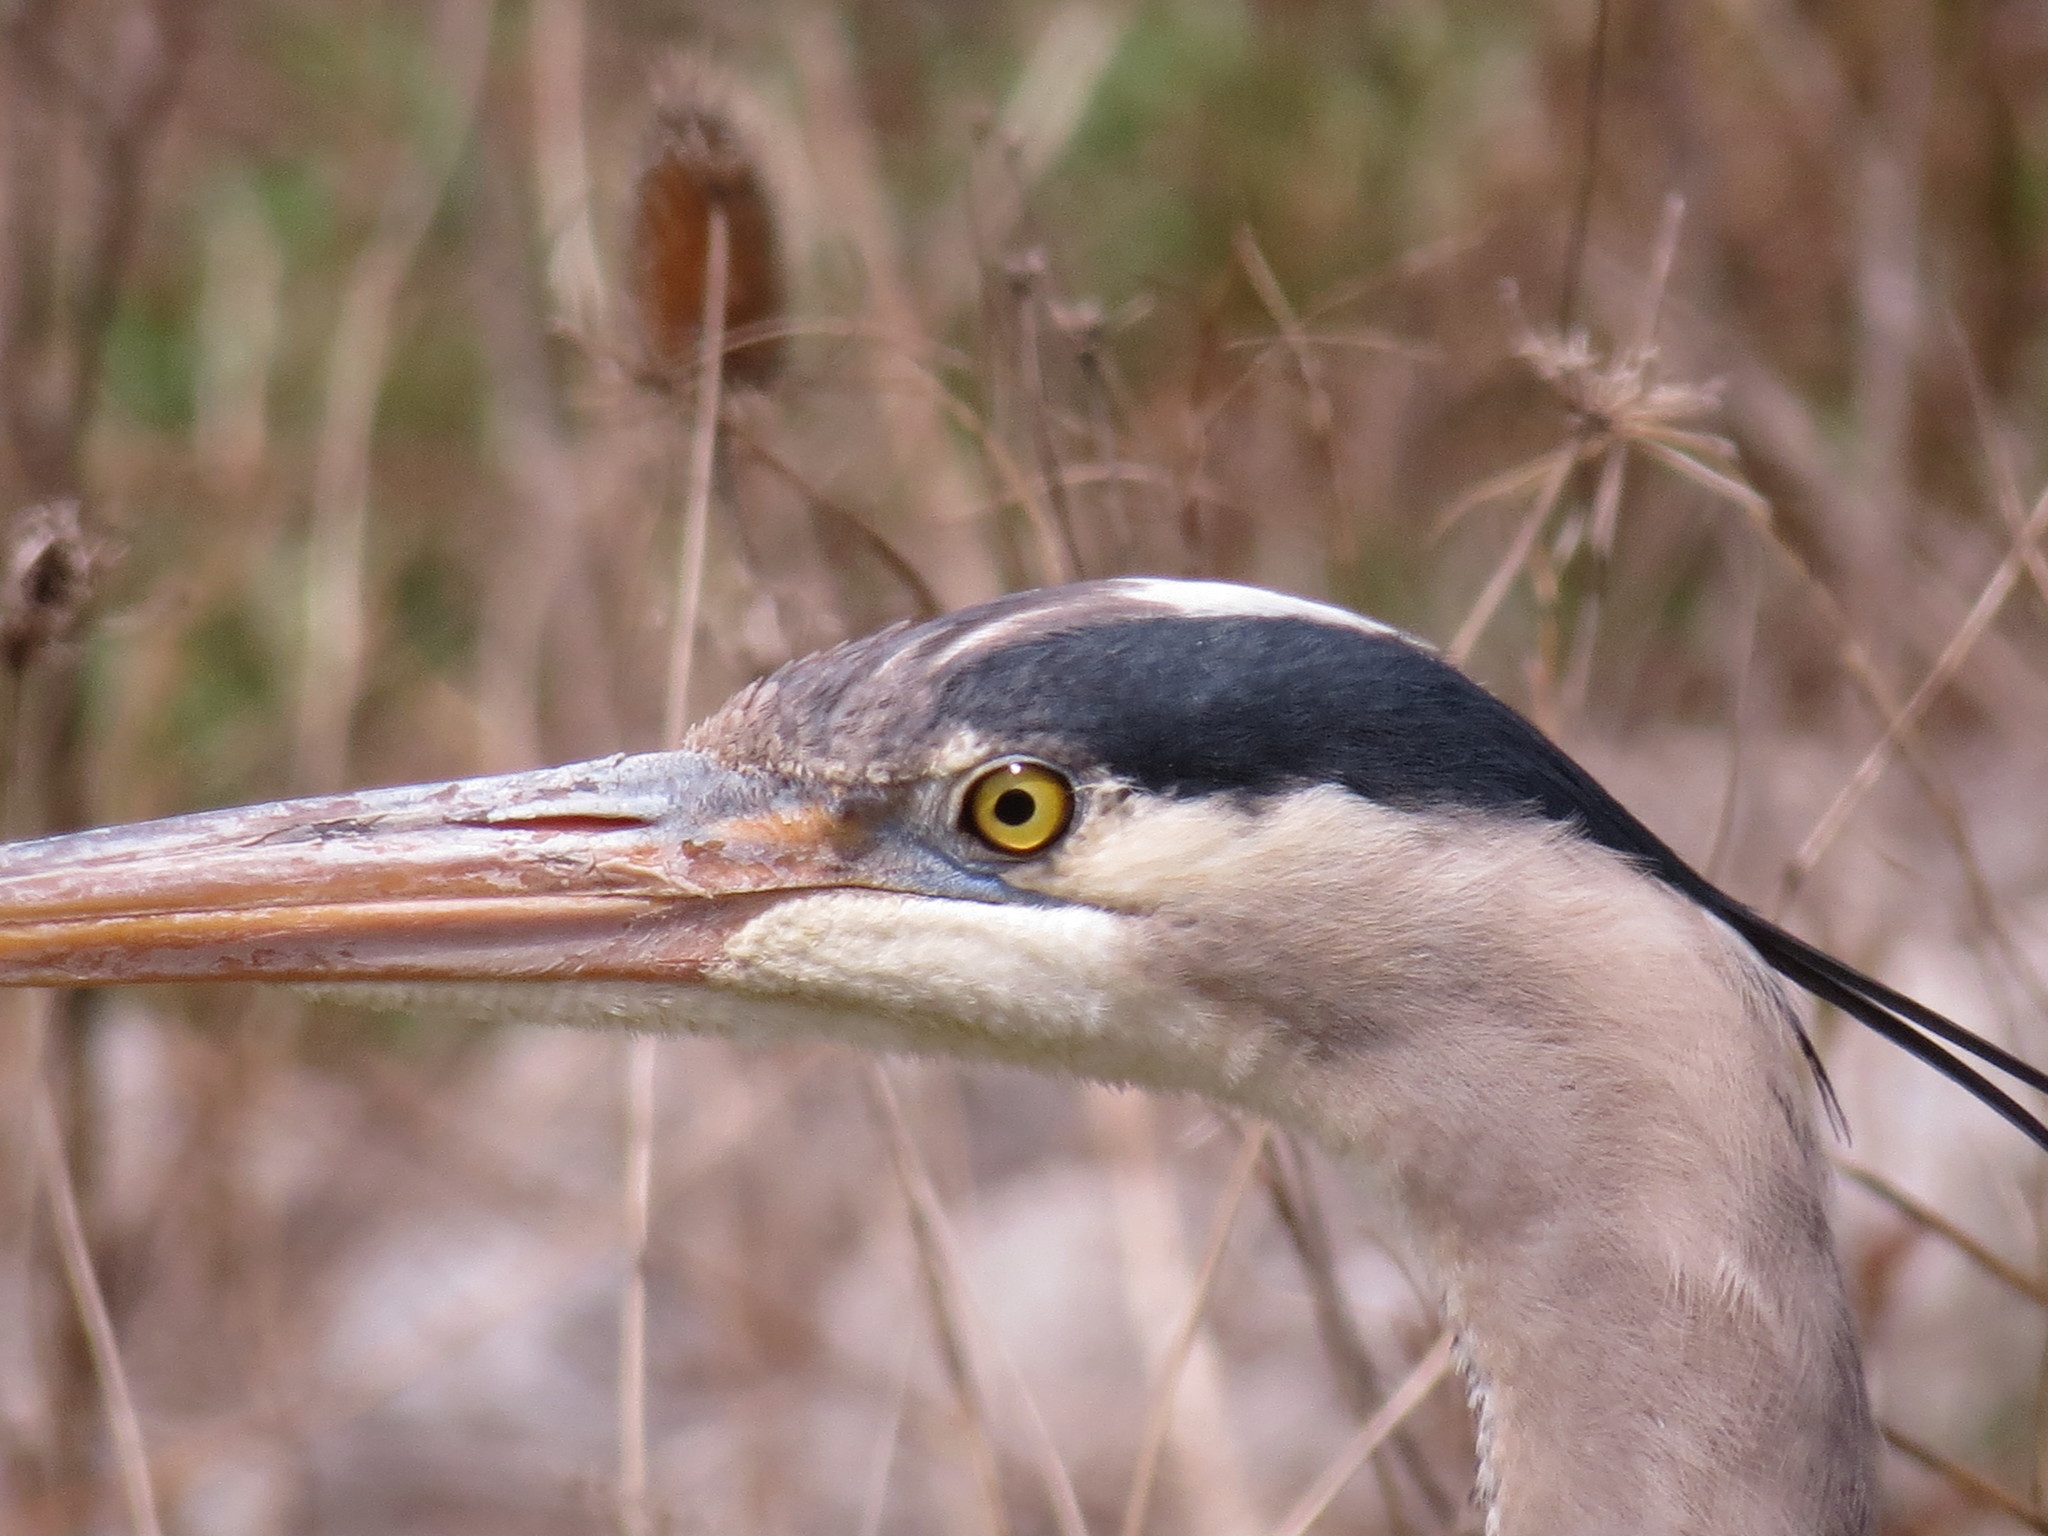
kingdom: Animalia
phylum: Chordata
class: Aves
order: Pelecaniformes
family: Ardeidae
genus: Ardea
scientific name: Ardea herodias
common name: Great blue heron
